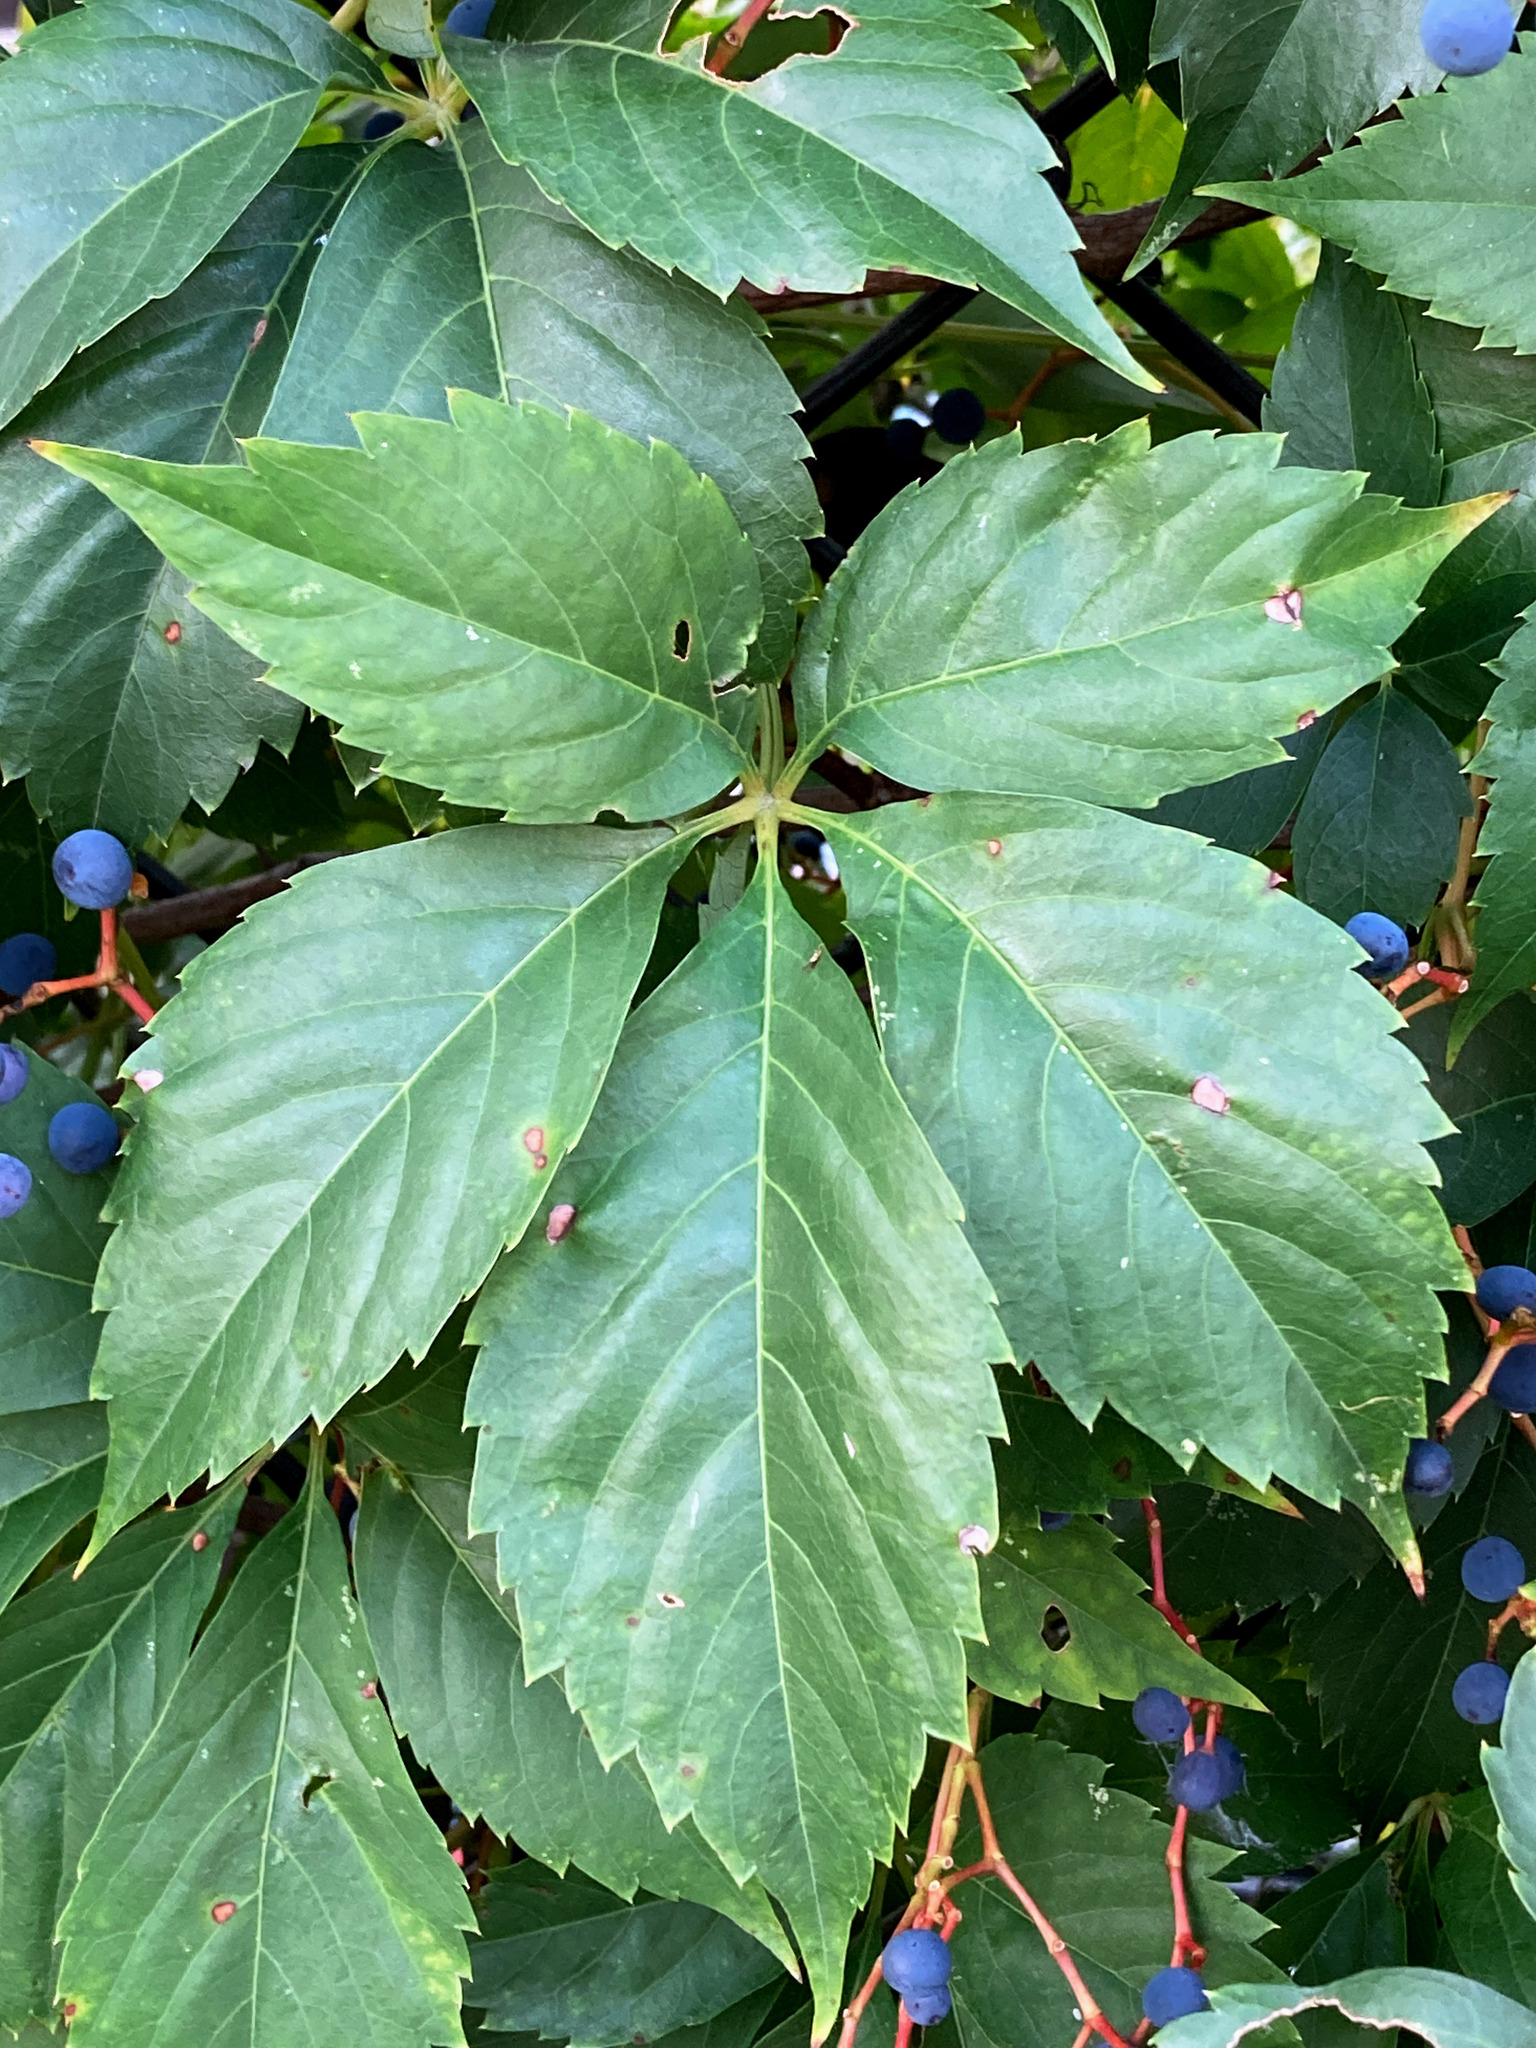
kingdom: Plantae
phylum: Tracheophyta
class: Magnoliopsida
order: Vitales
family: Vitaceae
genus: Parthenocissus
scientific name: Parthenocissus quinquefolia
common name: Virginia-creeper
